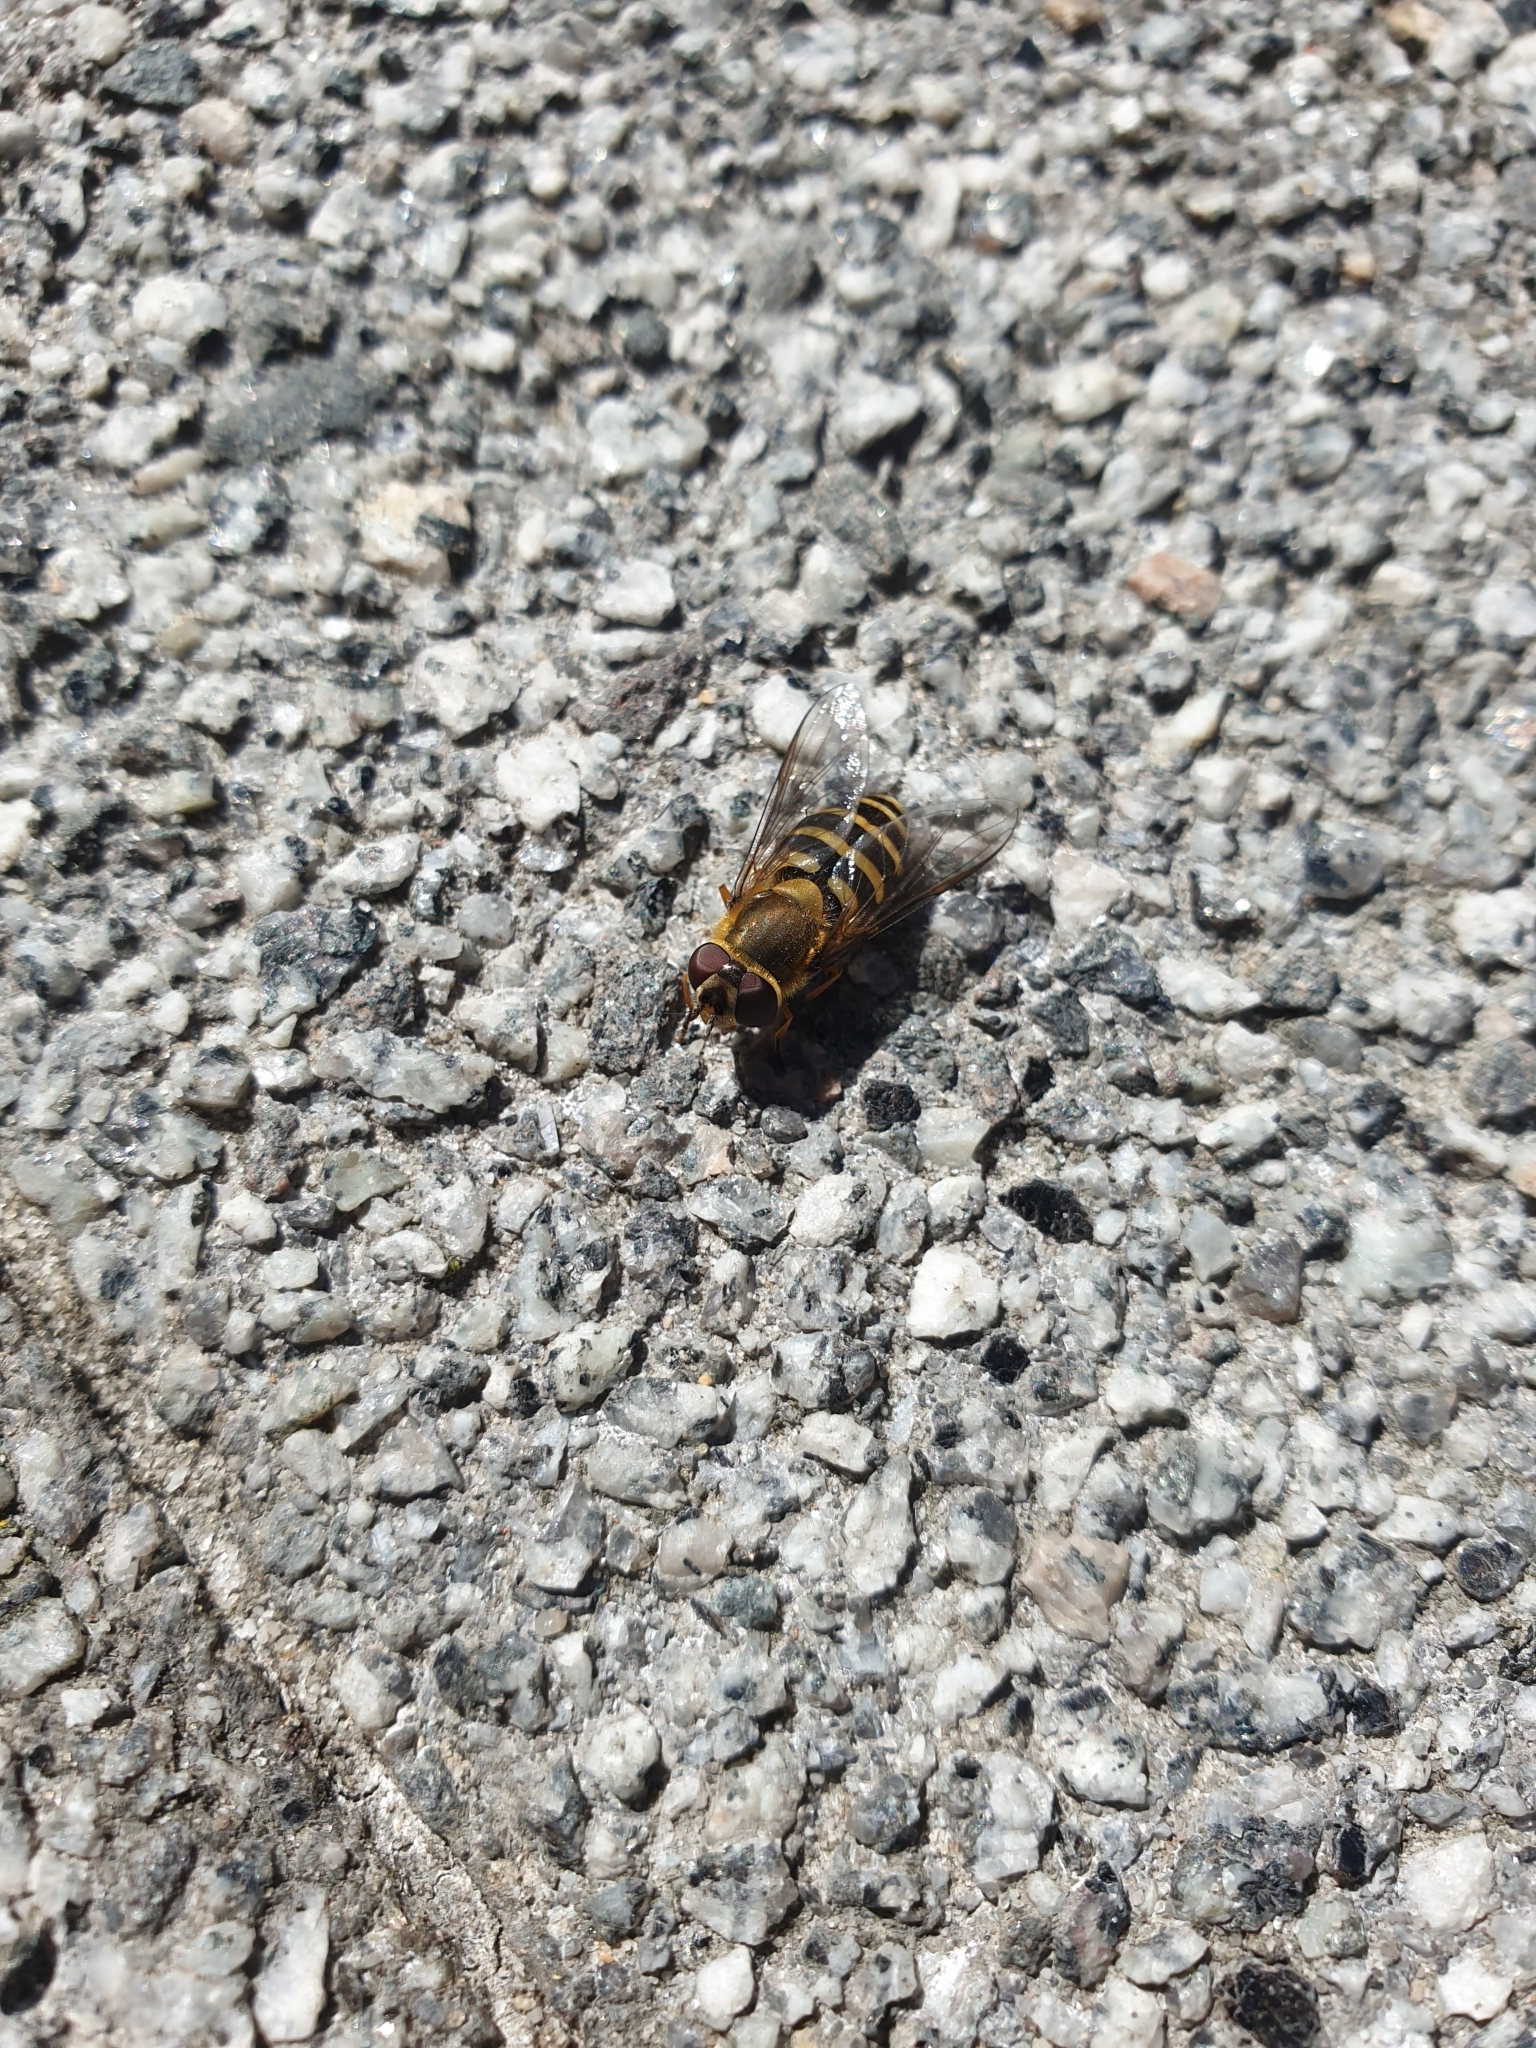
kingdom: Animalia
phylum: Arthropoda
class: Insecta
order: Diptera
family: Syrphidae
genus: Syrphus
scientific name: Syrphus
